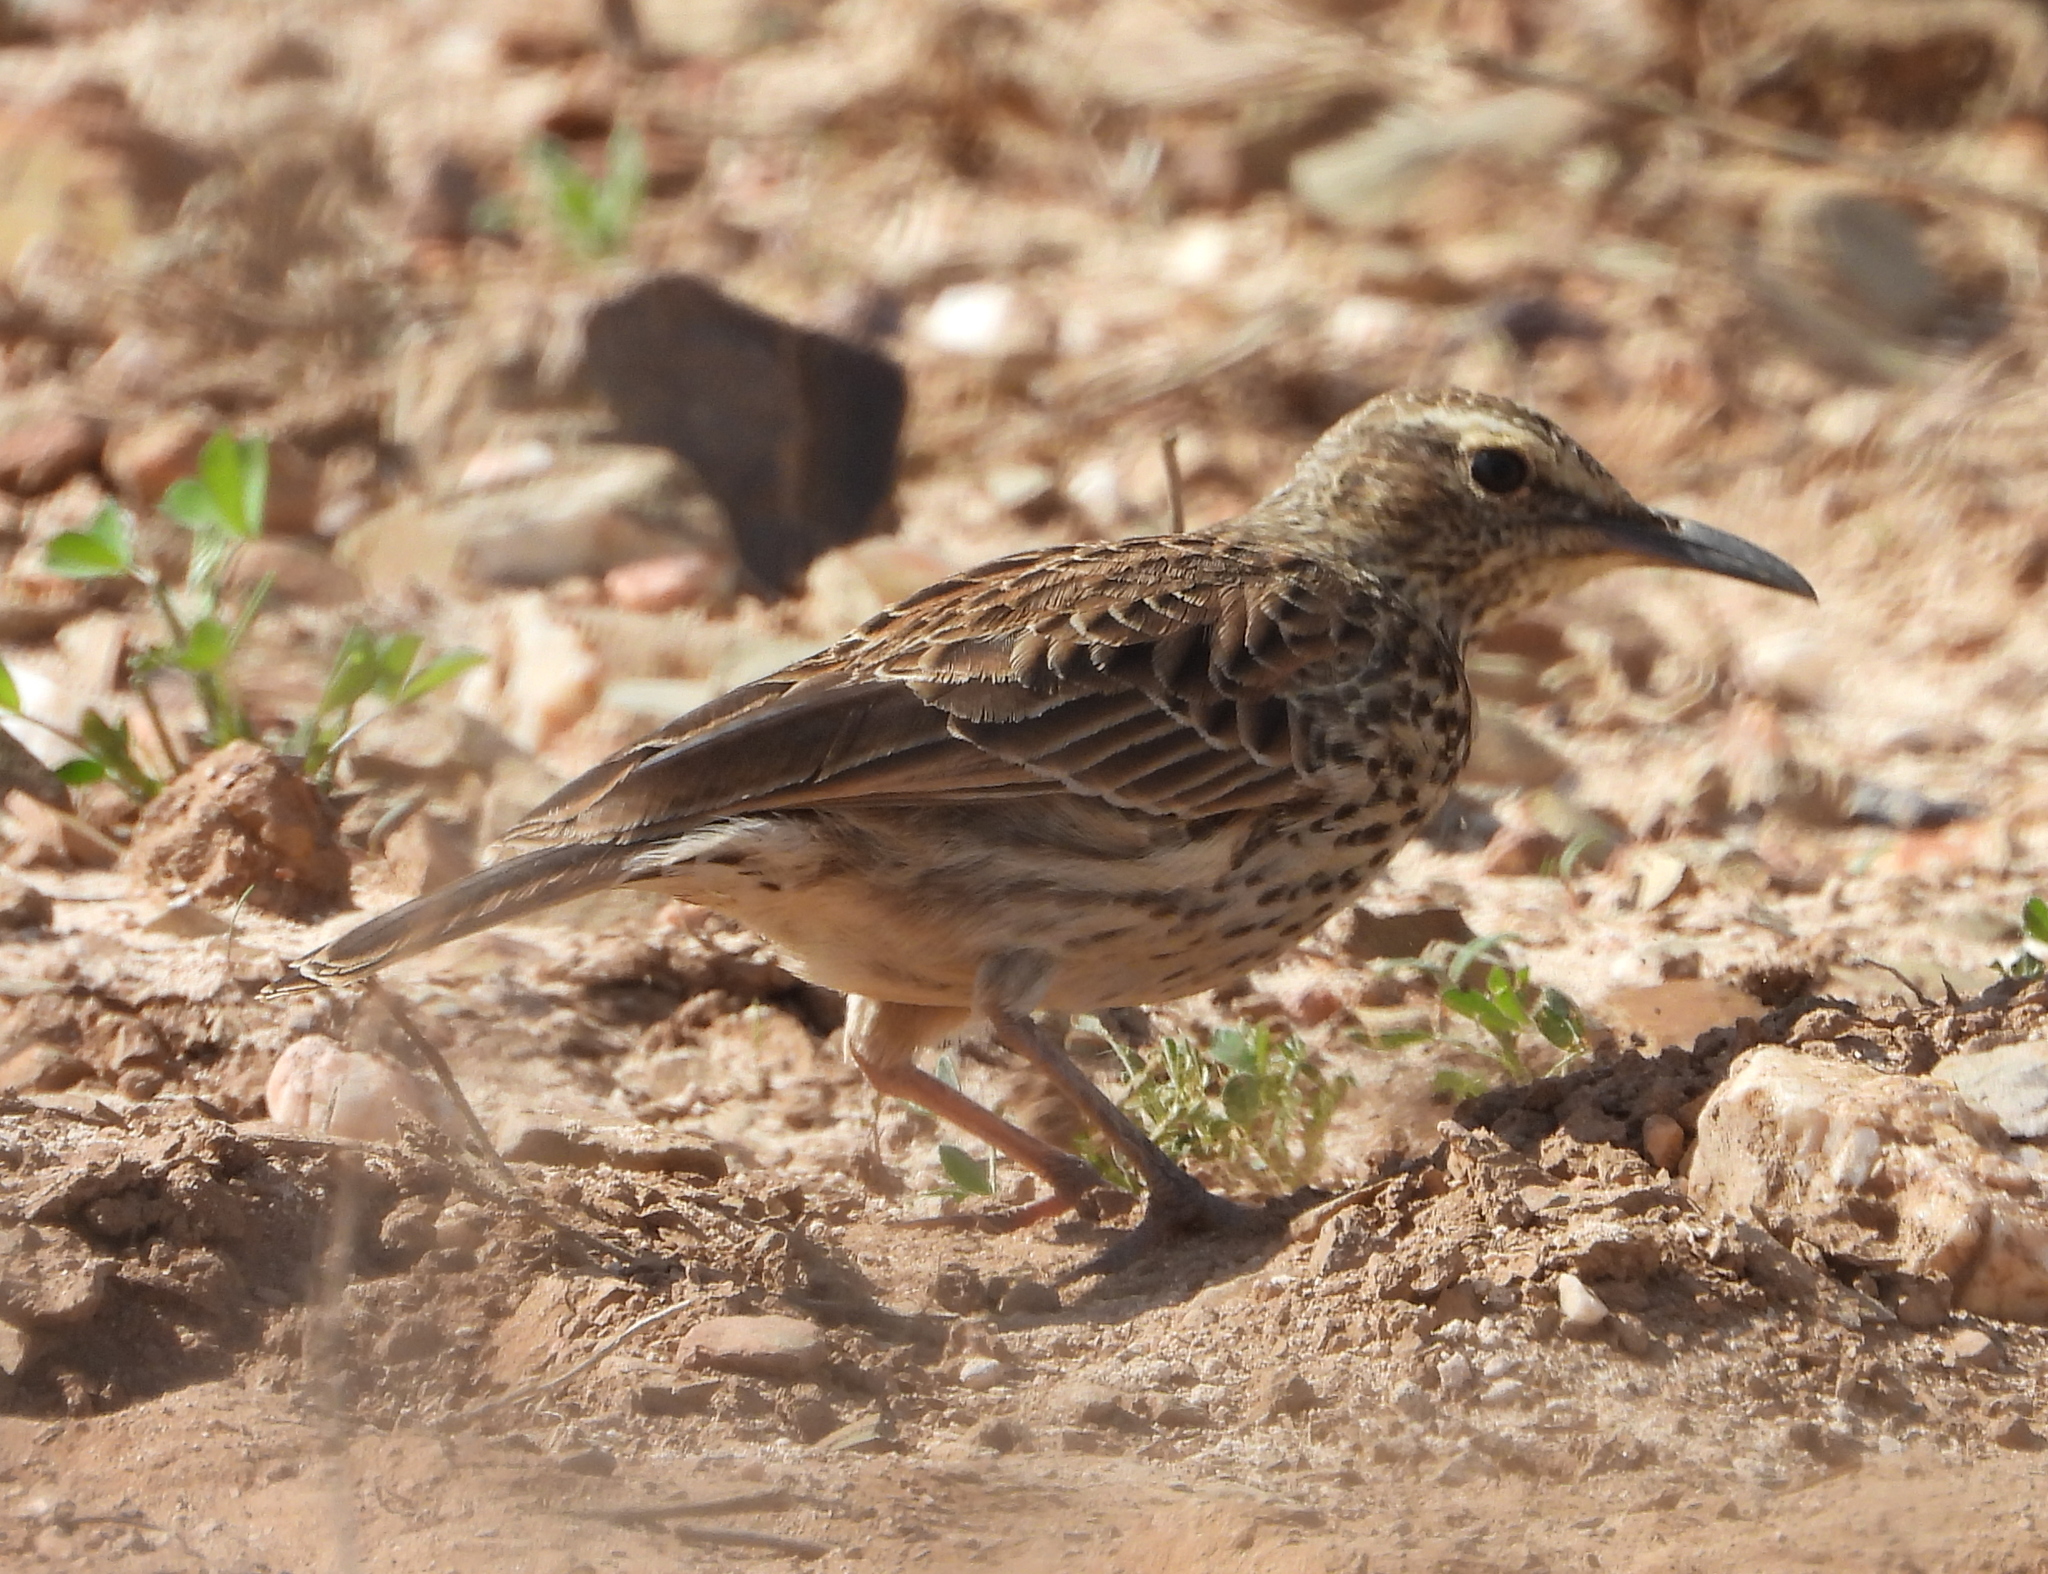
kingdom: Animalia
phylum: Chordata
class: Aves
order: Passeriformes
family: Alaudidae
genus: Certhilauda
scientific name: Certhilauda curvirostris
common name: Cape long-billed lark
